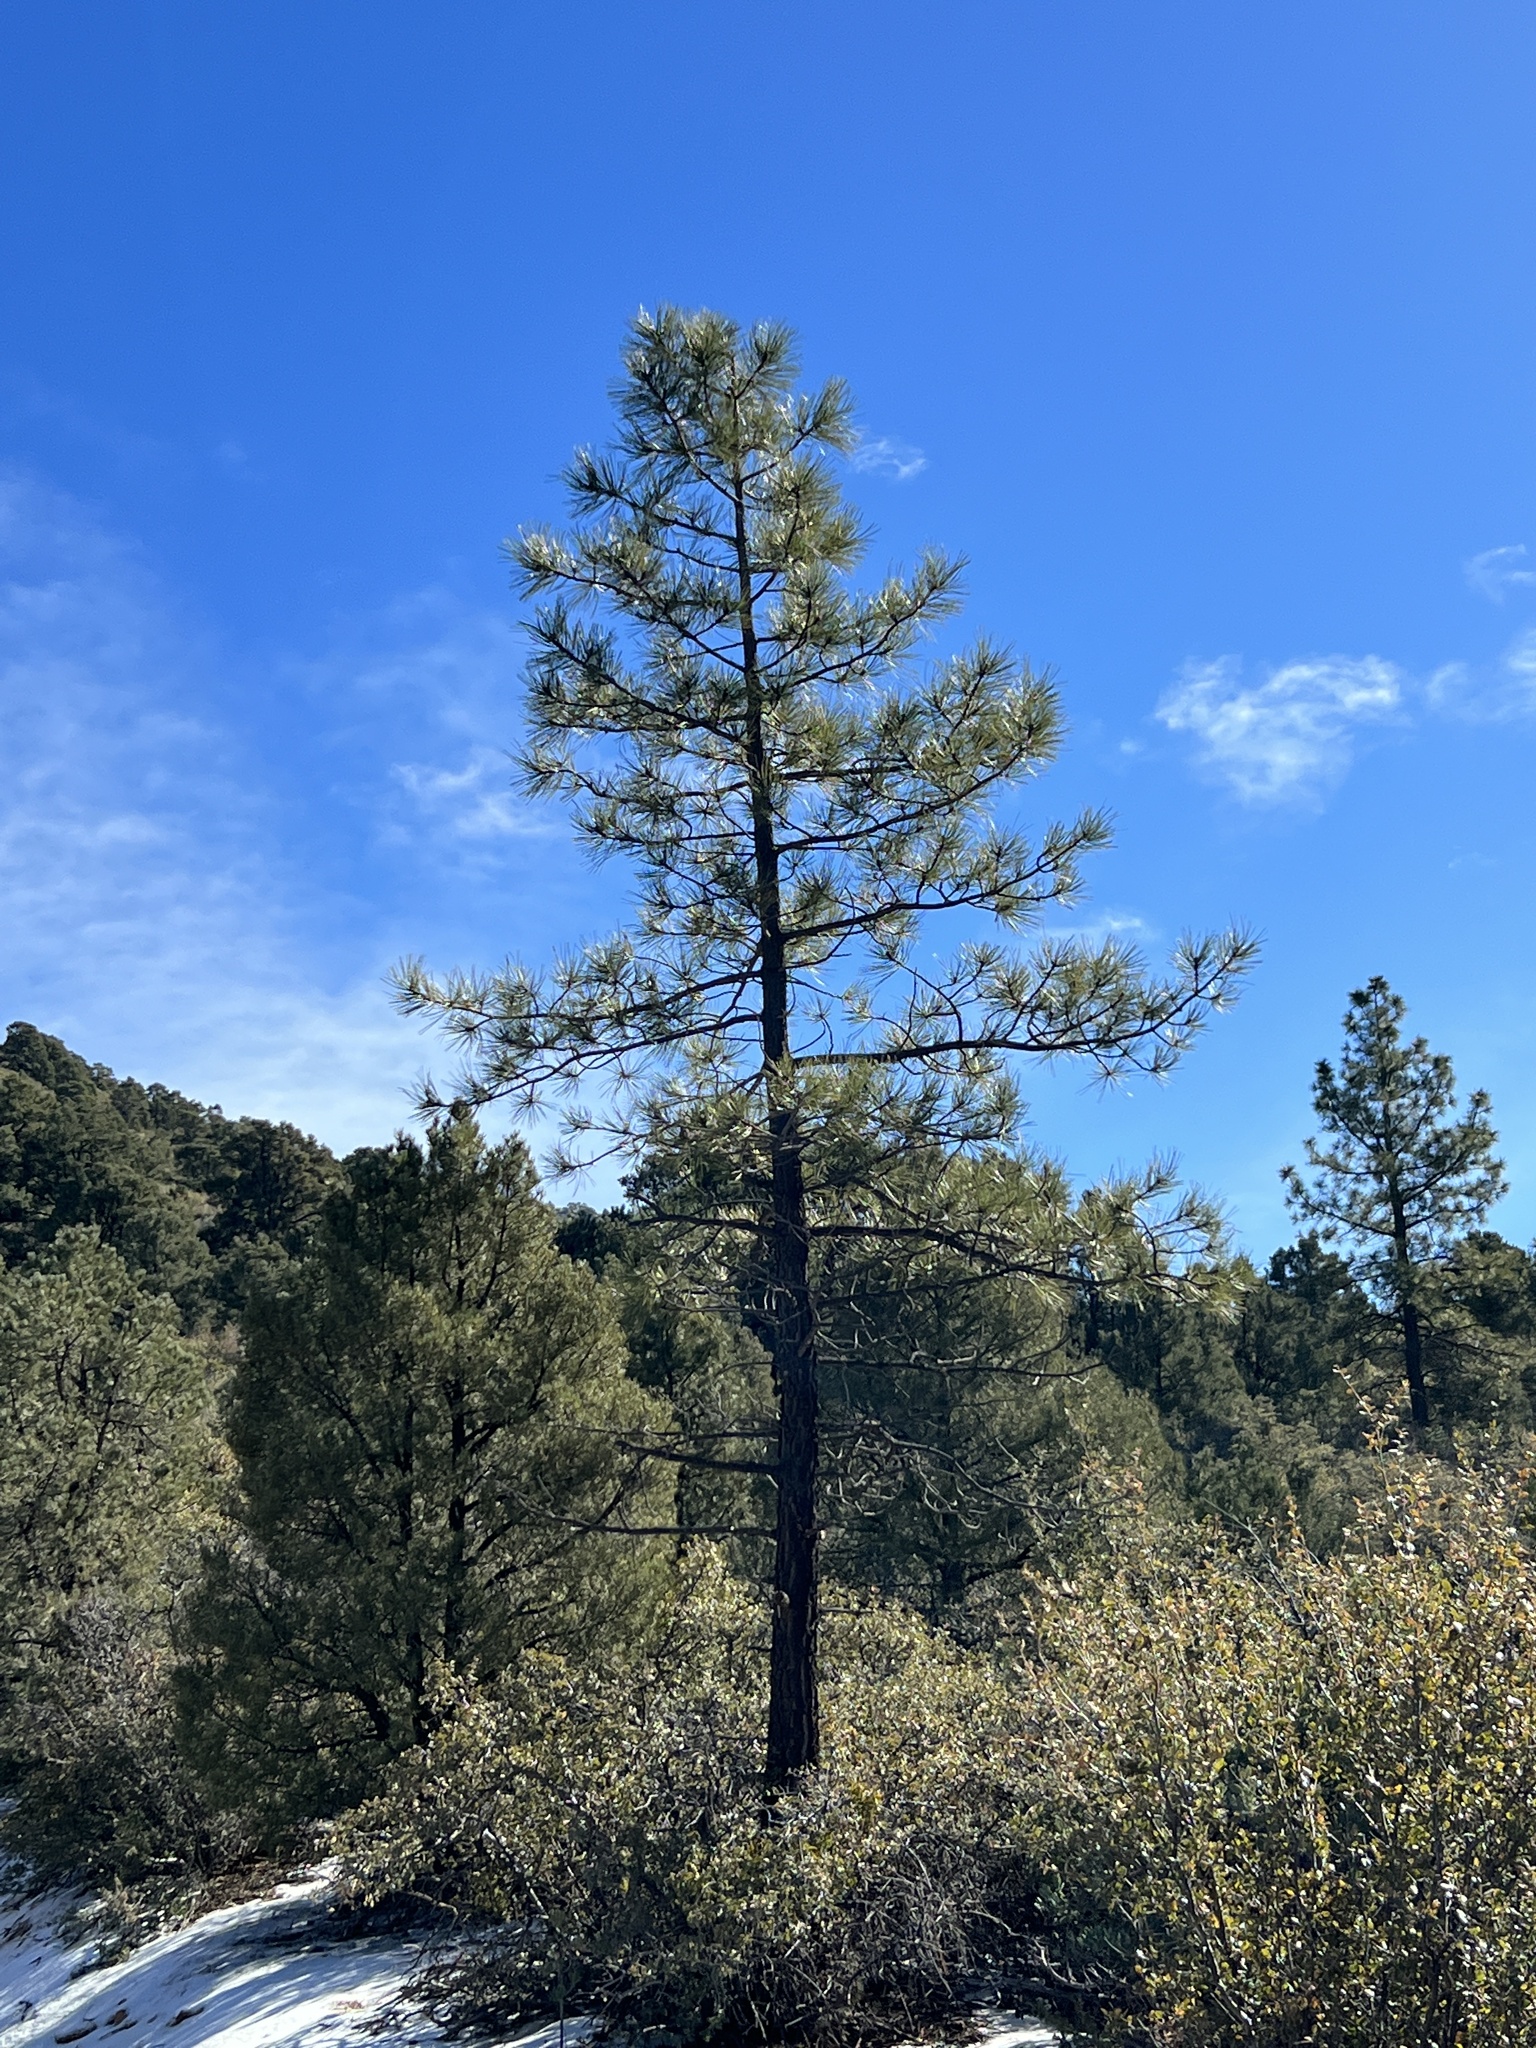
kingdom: Plantae
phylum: Tracheophyta
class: Pinopsida
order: Pinales
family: Pinaceae
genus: Pinus
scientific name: Pinus ponderosa
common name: Western yellow-pine
